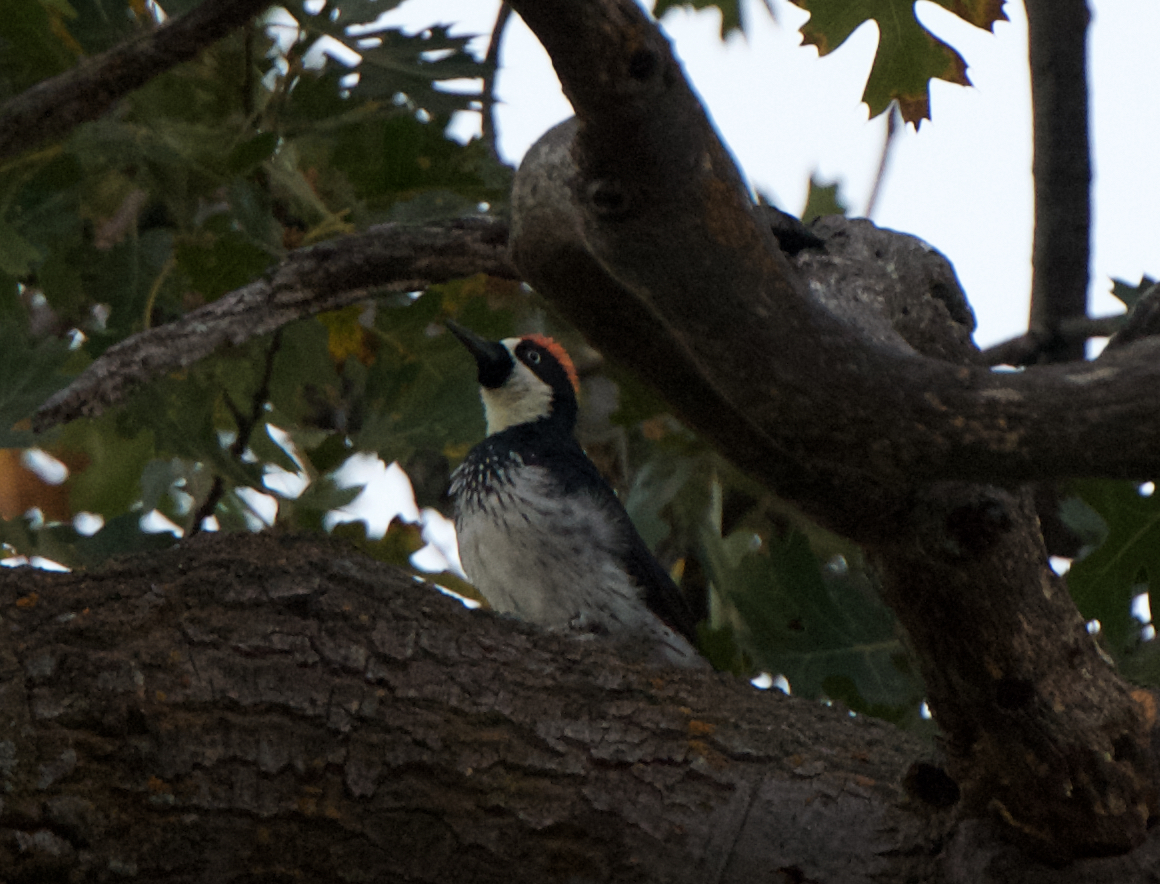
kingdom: Animalia
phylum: Chordata
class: Aves
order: Piciformes
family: Picidae
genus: Melanerpes
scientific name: Melanerpes formicivorus
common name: Acorn woodpecker
